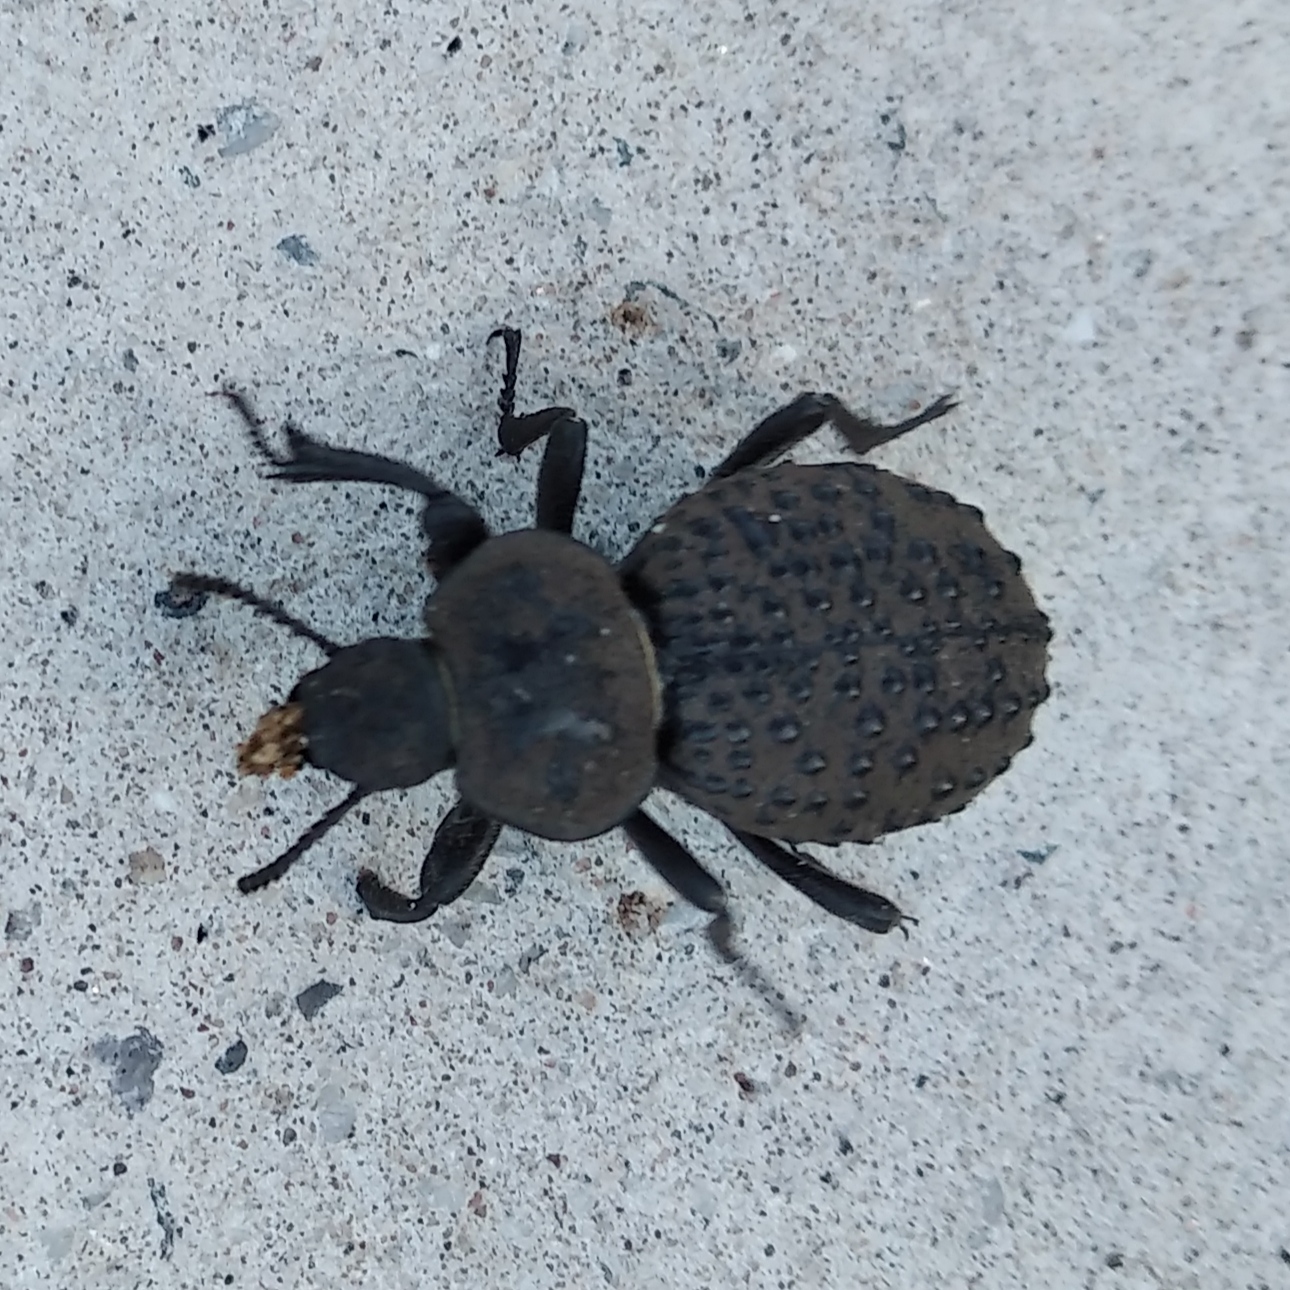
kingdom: Animalia
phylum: Arthropoda
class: Insecta
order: Coleoptera
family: Tenebrionidae
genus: Scotobius
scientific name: Scotobius pilularius
